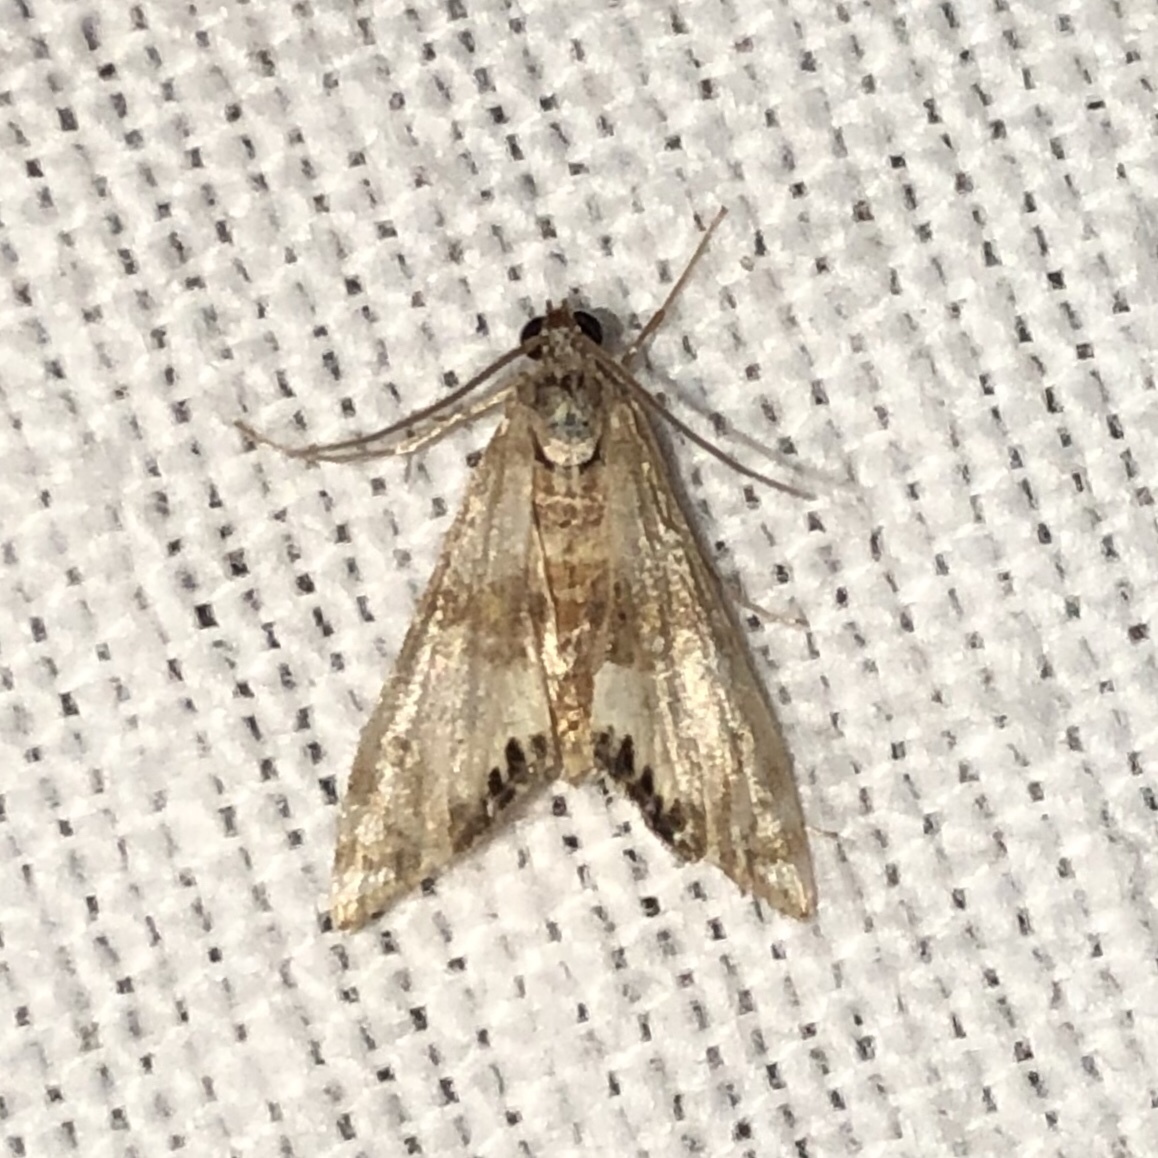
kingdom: Animalia
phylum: Arthropoda
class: Insecta
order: Lepidoptera
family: Crambidae
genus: Petrophila
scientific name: Petrophila bifascialis
